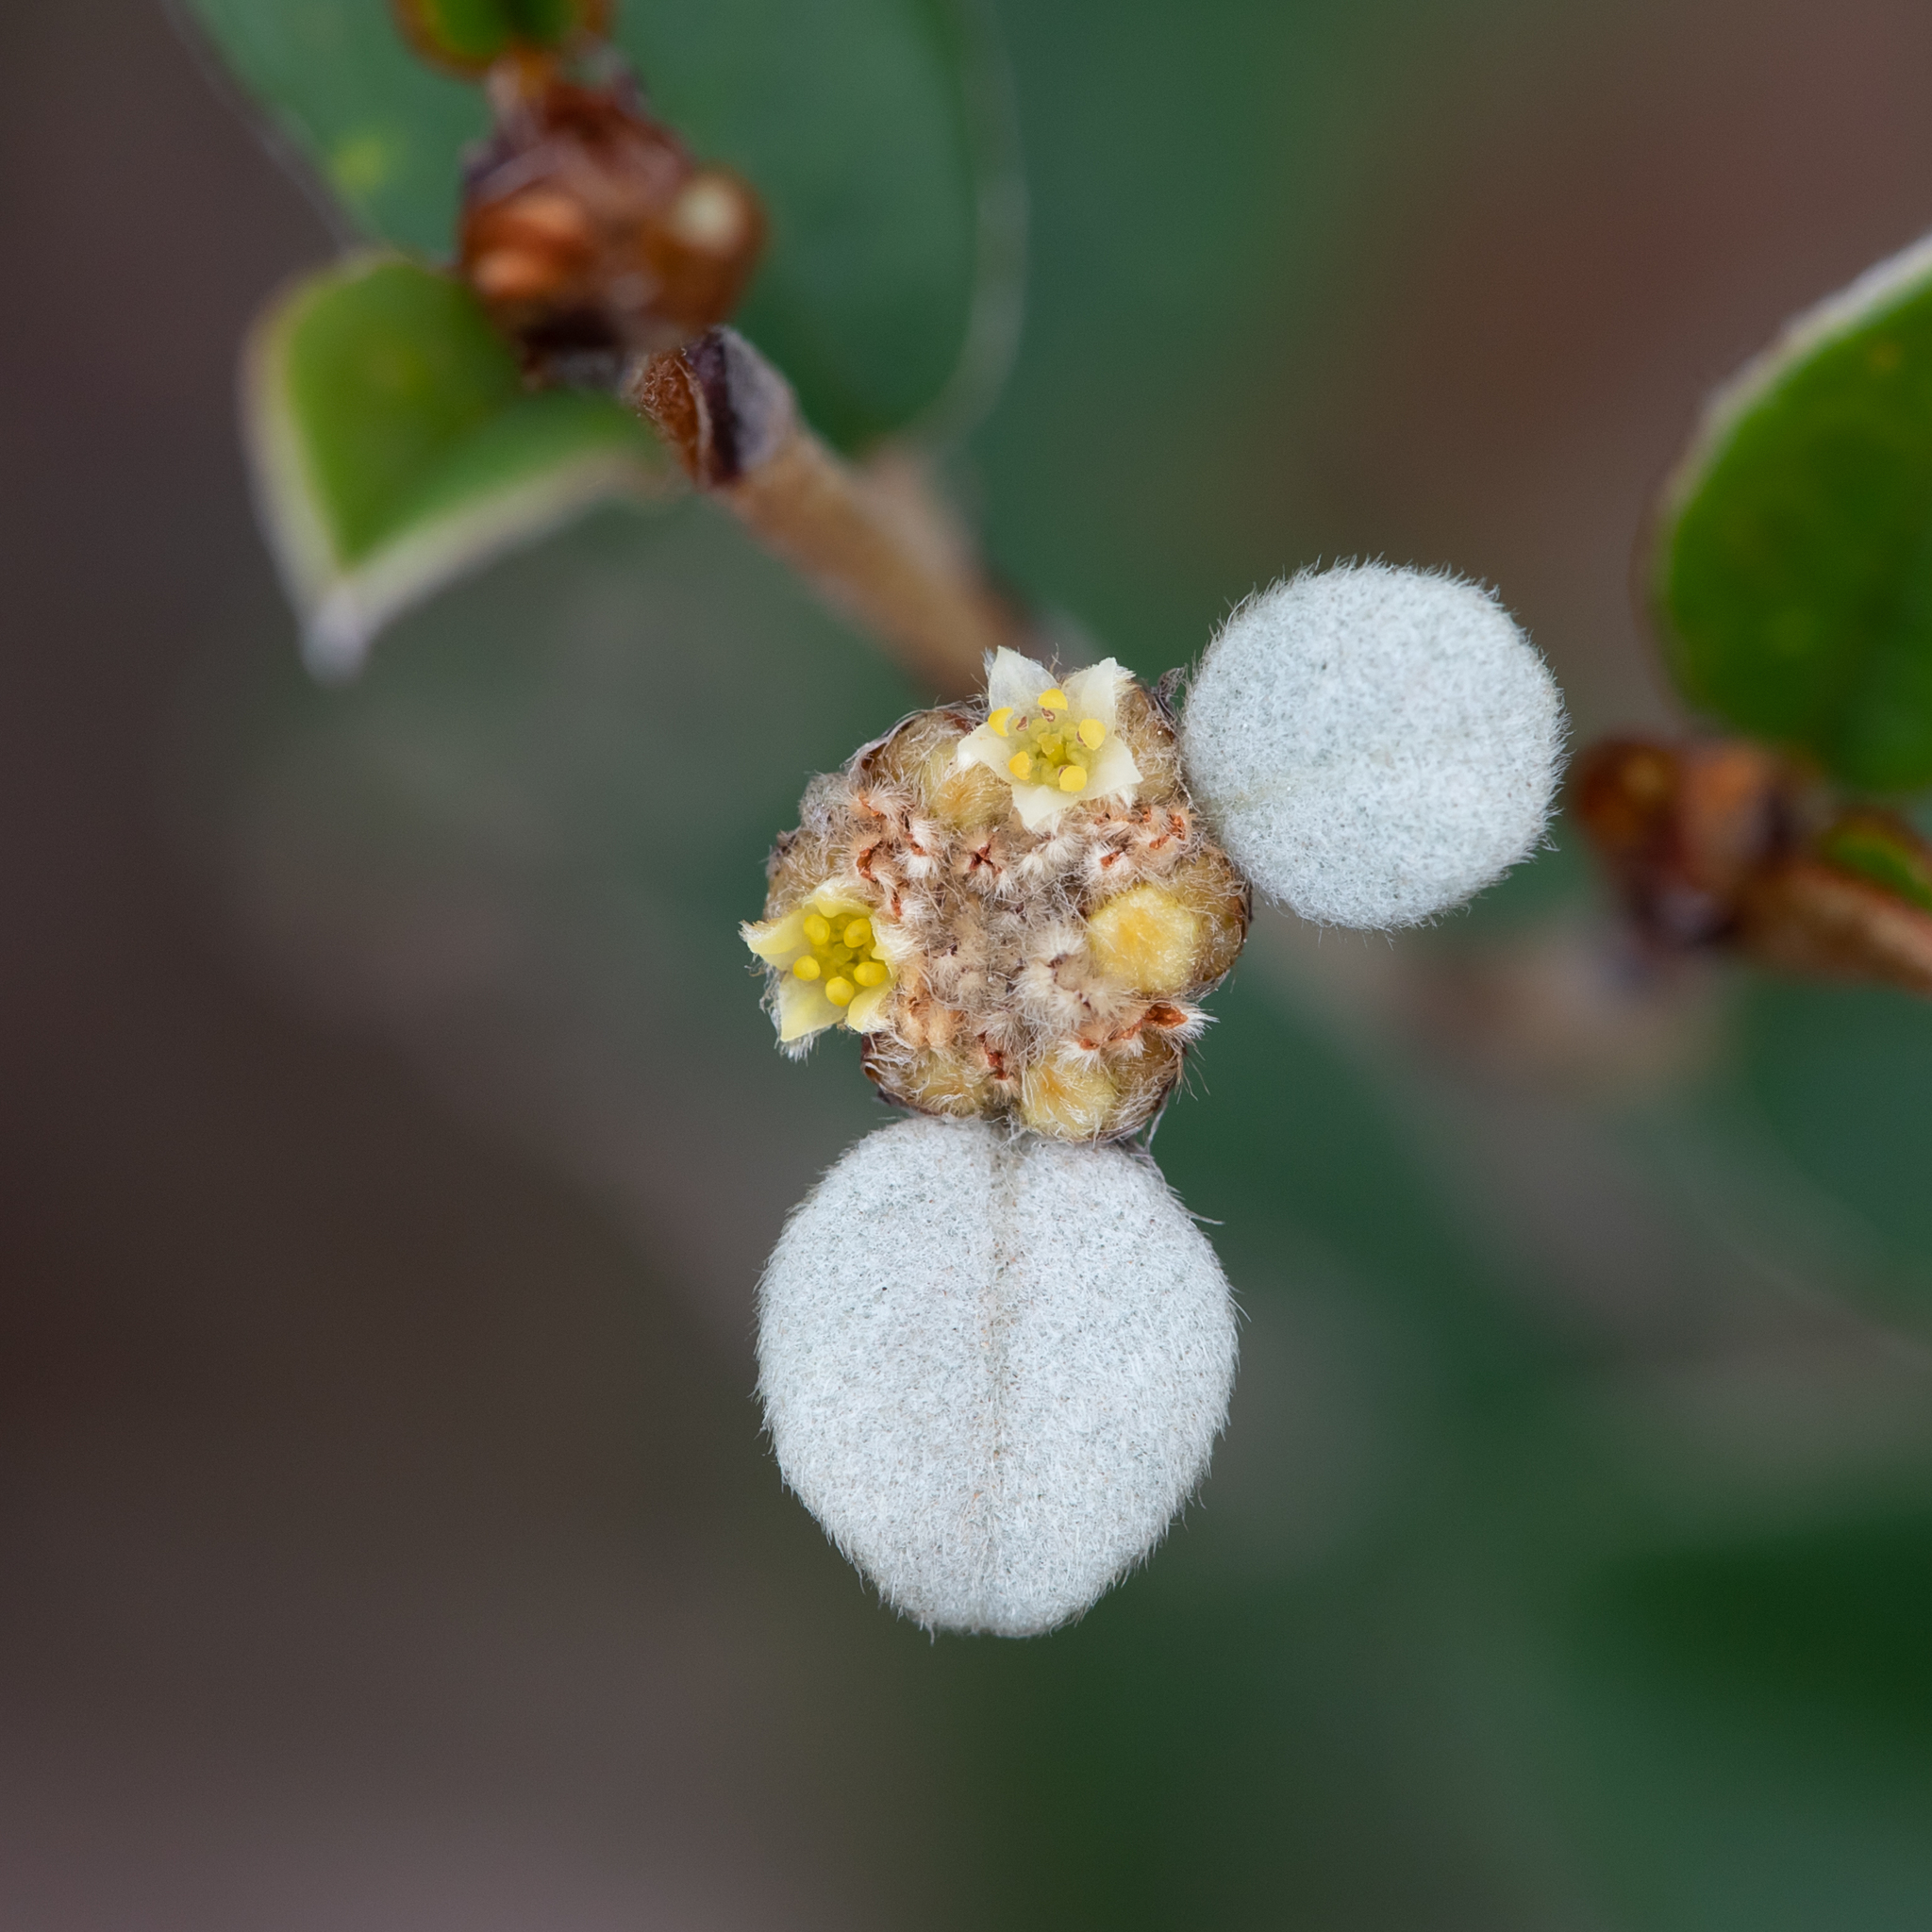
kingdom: Plantae
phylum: Tracheophyta
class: Magnoliopsida
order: Rosales
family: Rhamnaceae
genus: Spyridium
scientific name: Spyridium thymifolium
